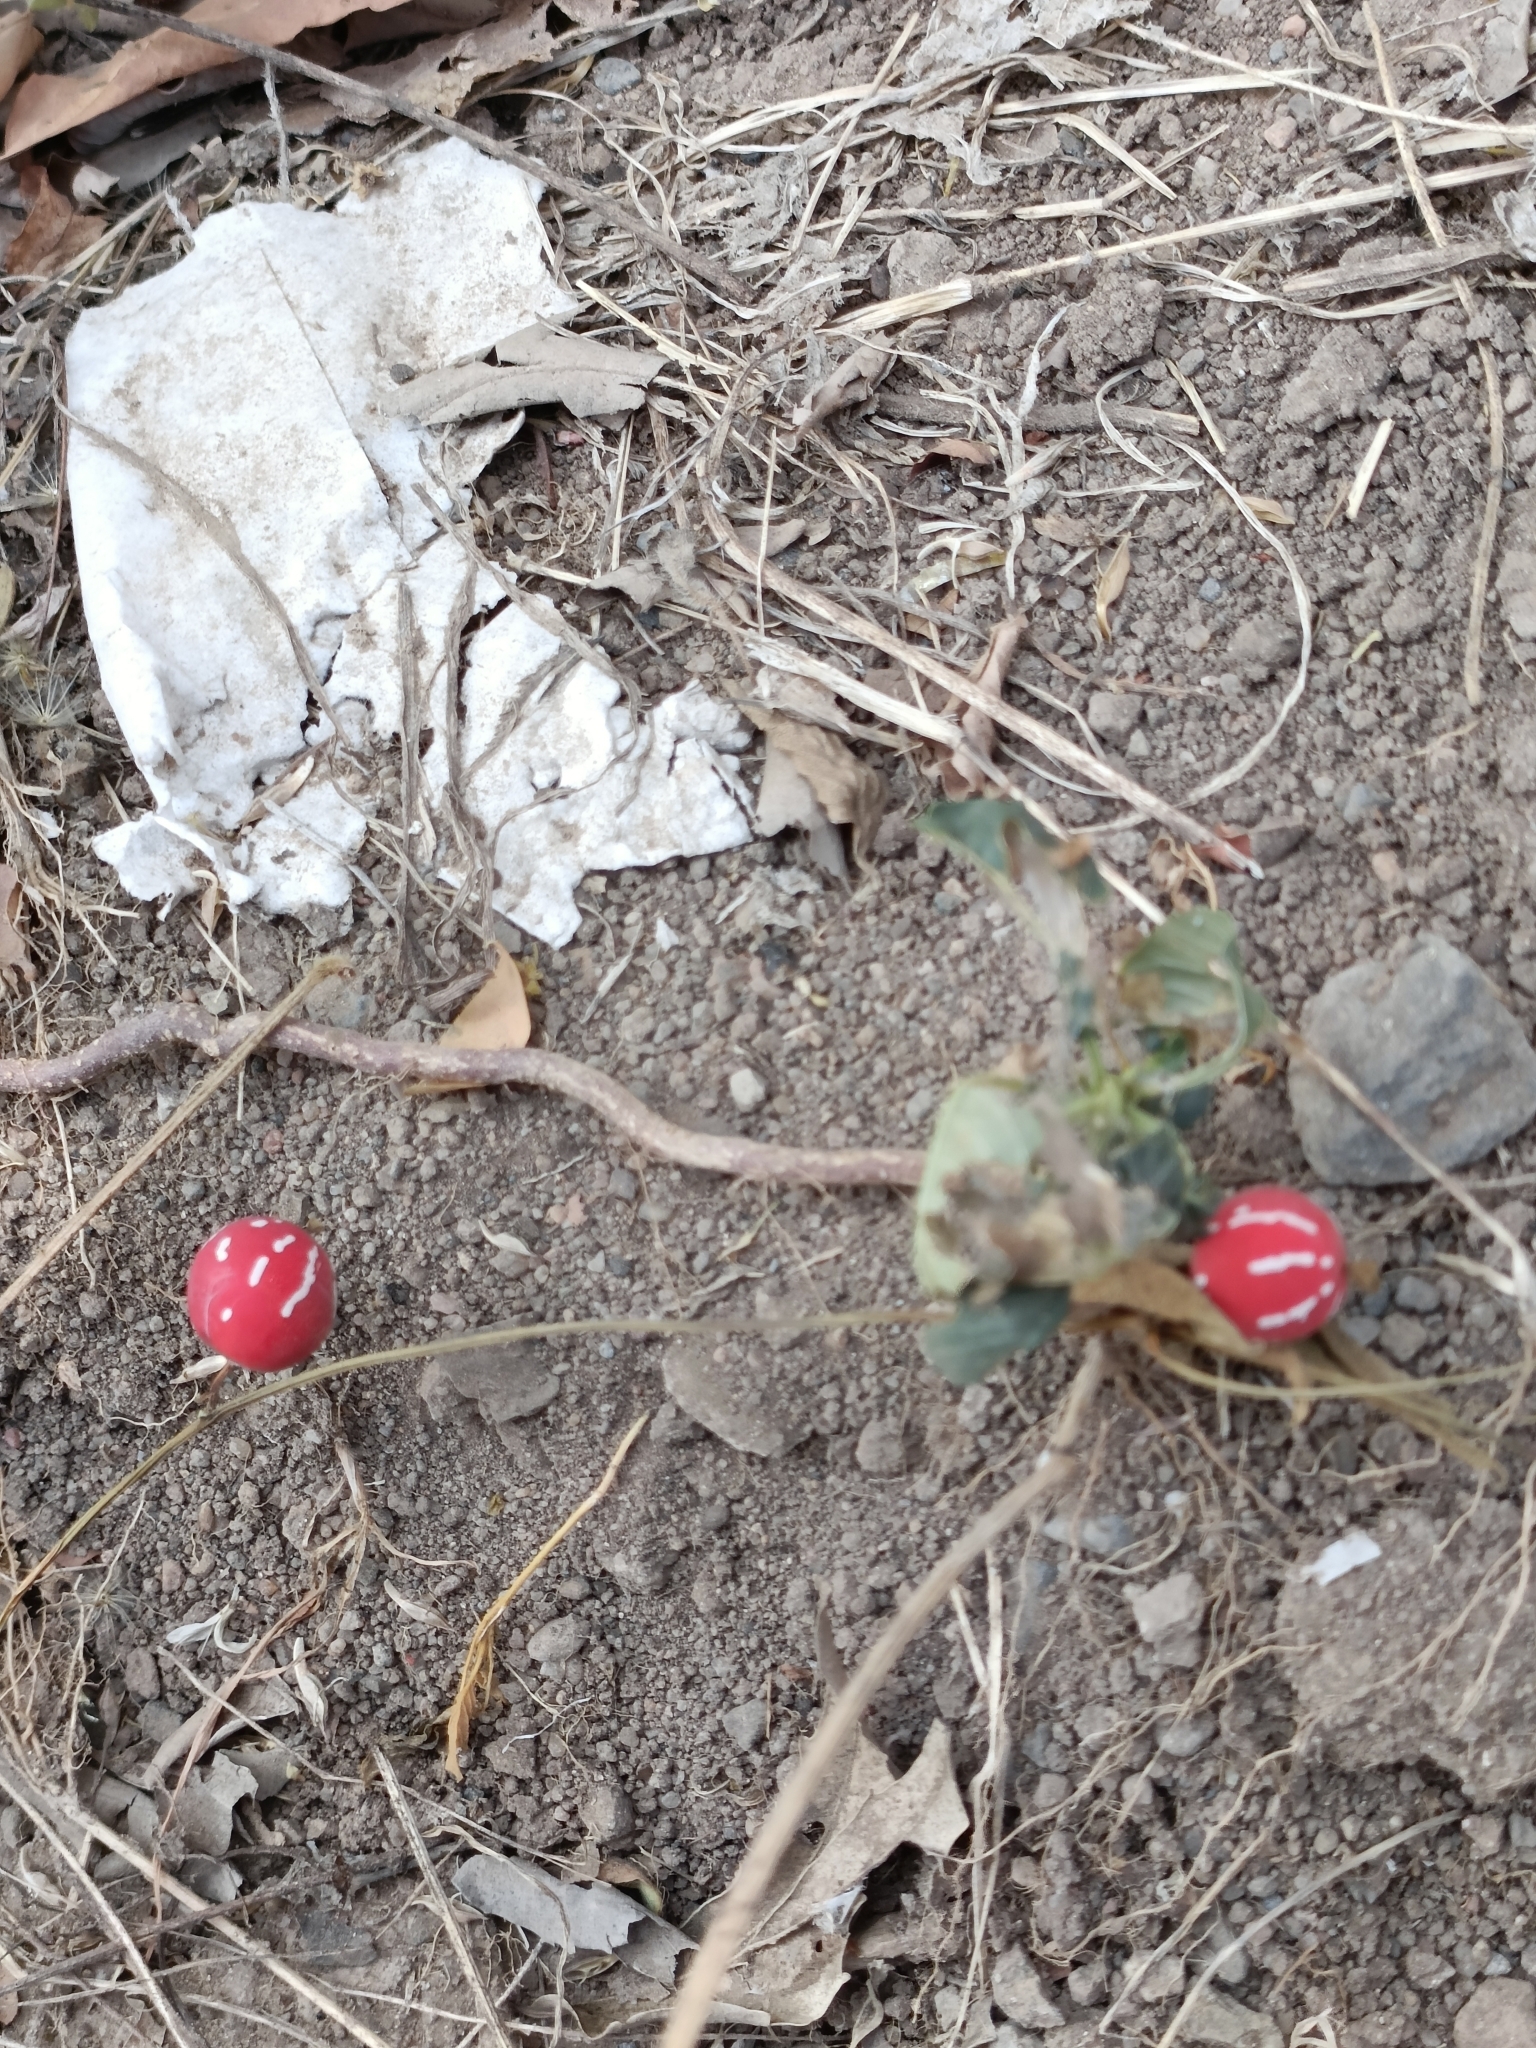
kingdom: Plantae
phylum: Tracheophyta
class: Magnoliopsida
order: Cucurbitales
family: Cucurbitaceae
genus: Diplocyclos
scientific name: Diplocyclos palmatus
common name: Striped-cucumber
